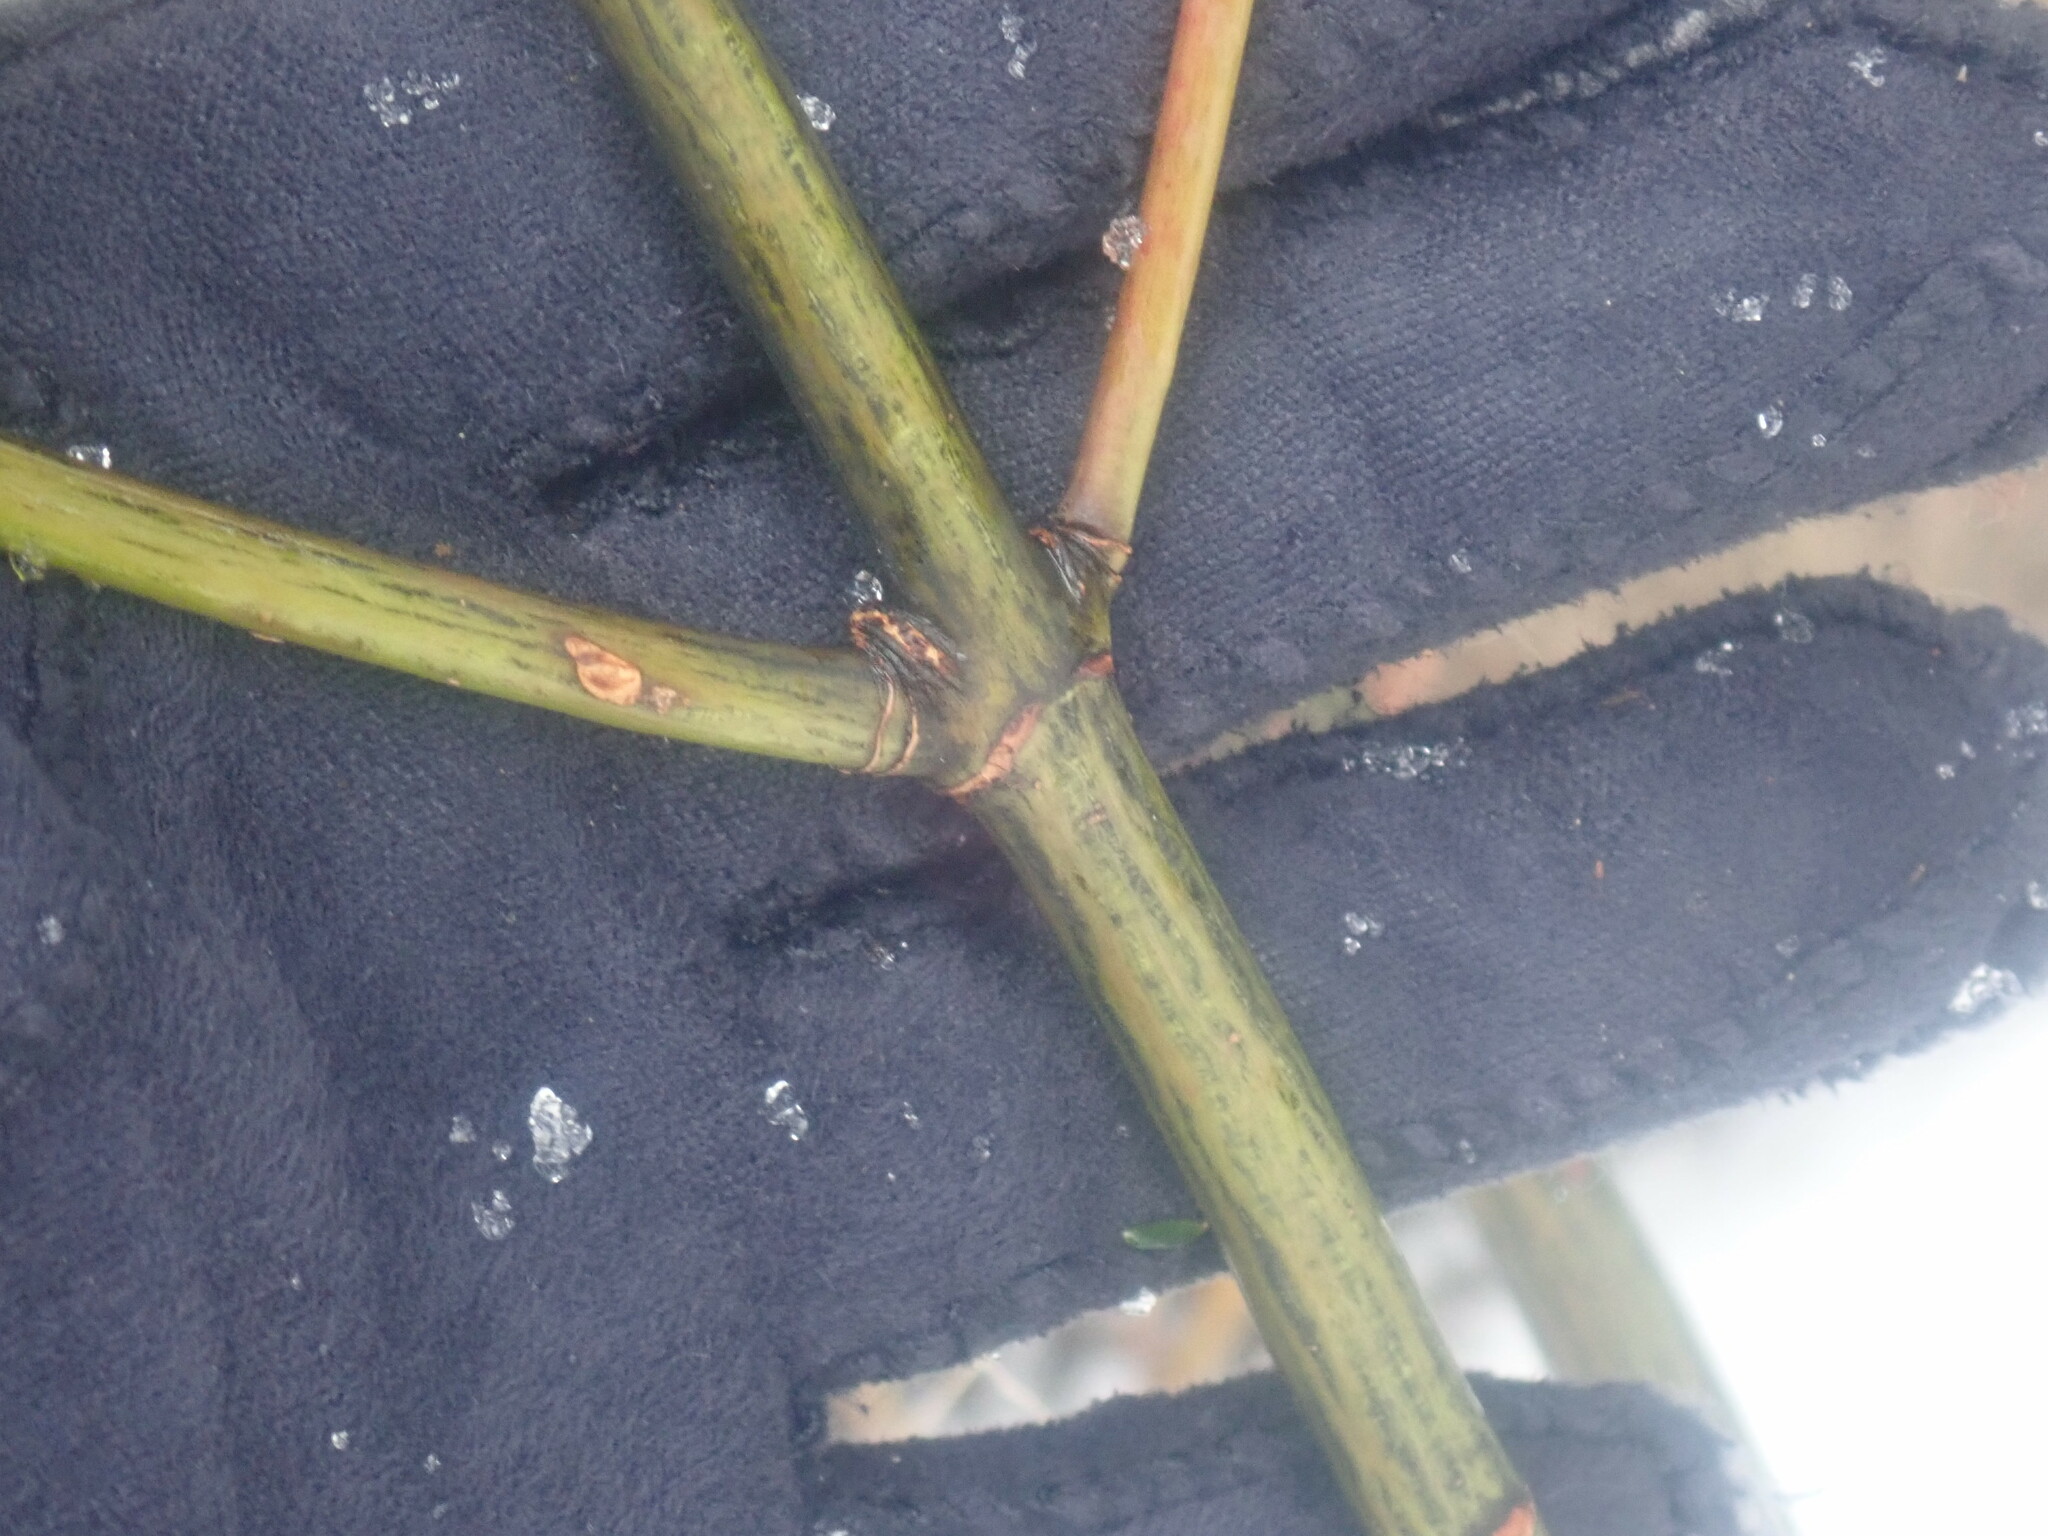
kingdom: Plantae
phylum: Tracheophyta
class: Magnoliopsida
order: Sapindales
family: Sapindaceae
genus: Acer
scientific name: Acer pensylvanicum
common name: Moosewood
